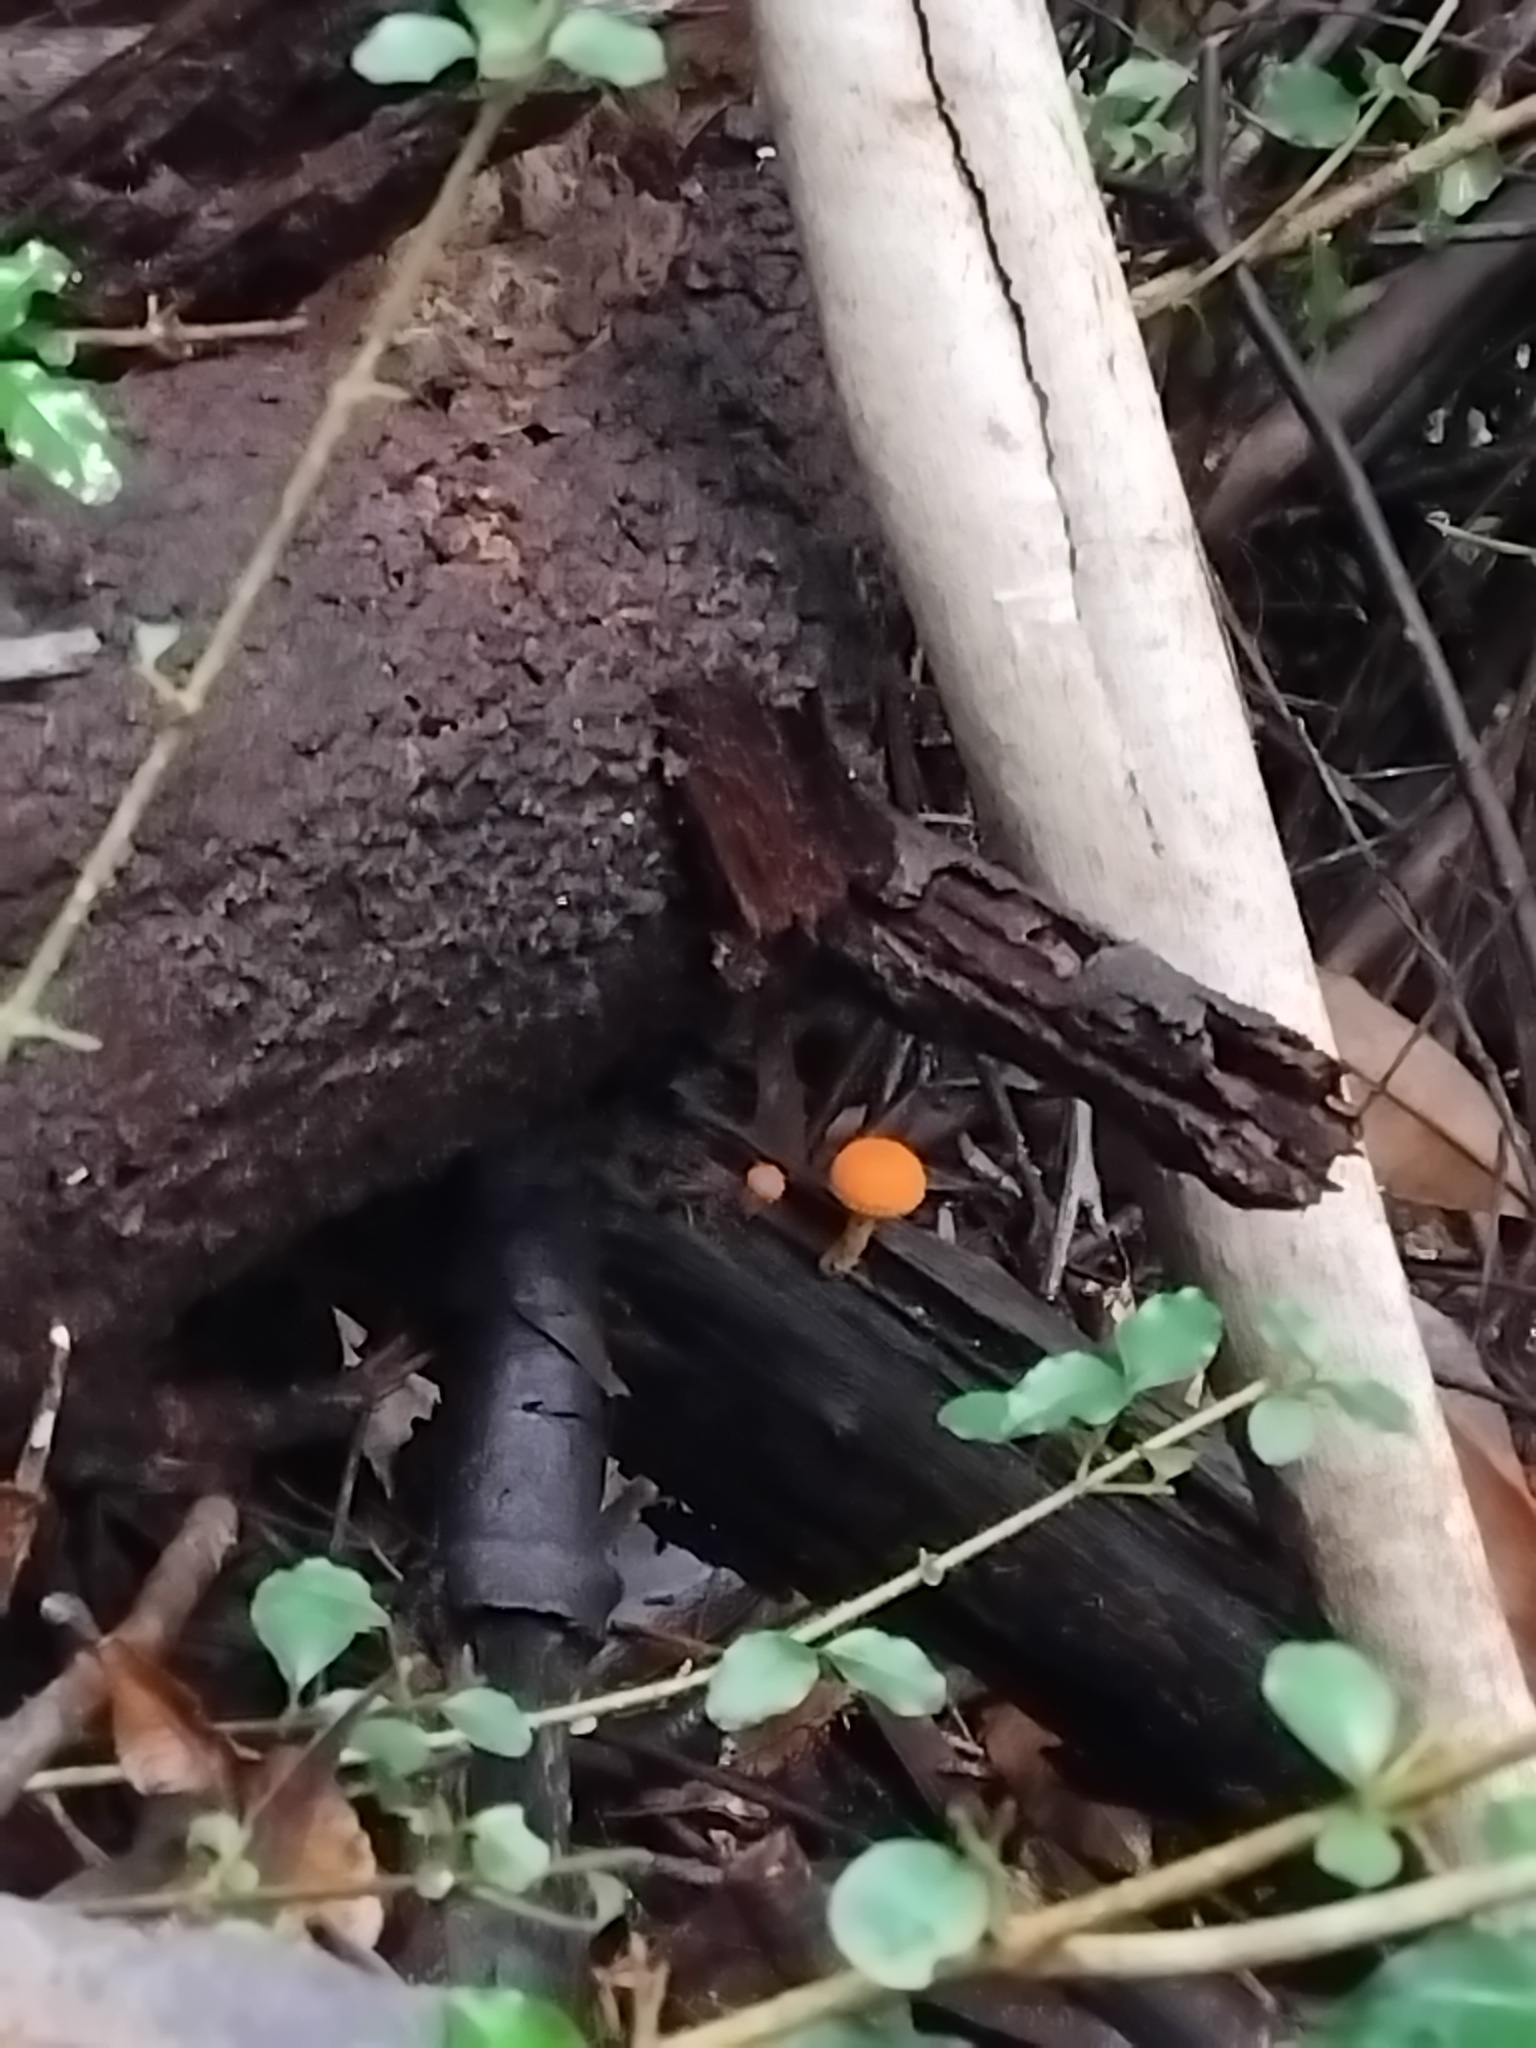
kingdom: Fungi
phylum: Basidiomycota
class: Agaricomycetes
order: Agaricales
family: Physalacriaceae
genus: Cyptotrama
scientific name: Cyptotrama asprata
